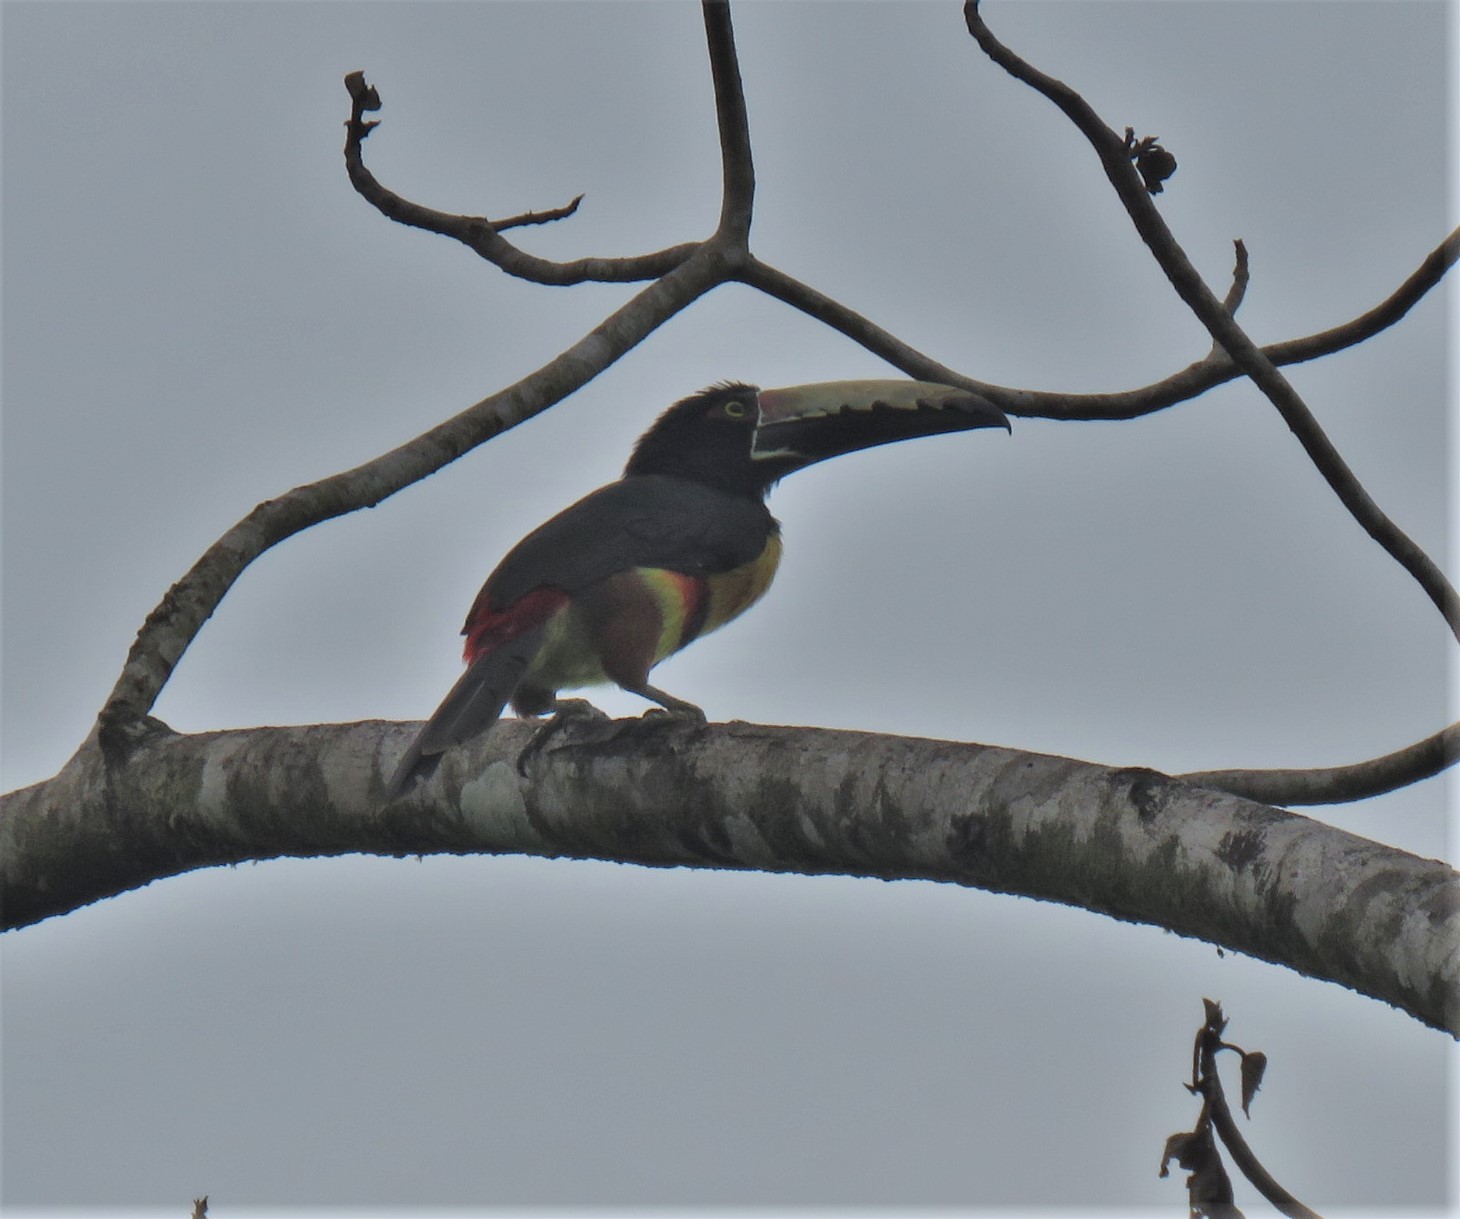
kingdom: Animalia
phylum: Chordata
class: Aves
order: Piciformes
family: Ramphastidae
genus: Pteroglossus
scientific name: Pteroglossus torquatus
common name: Collared aracari
